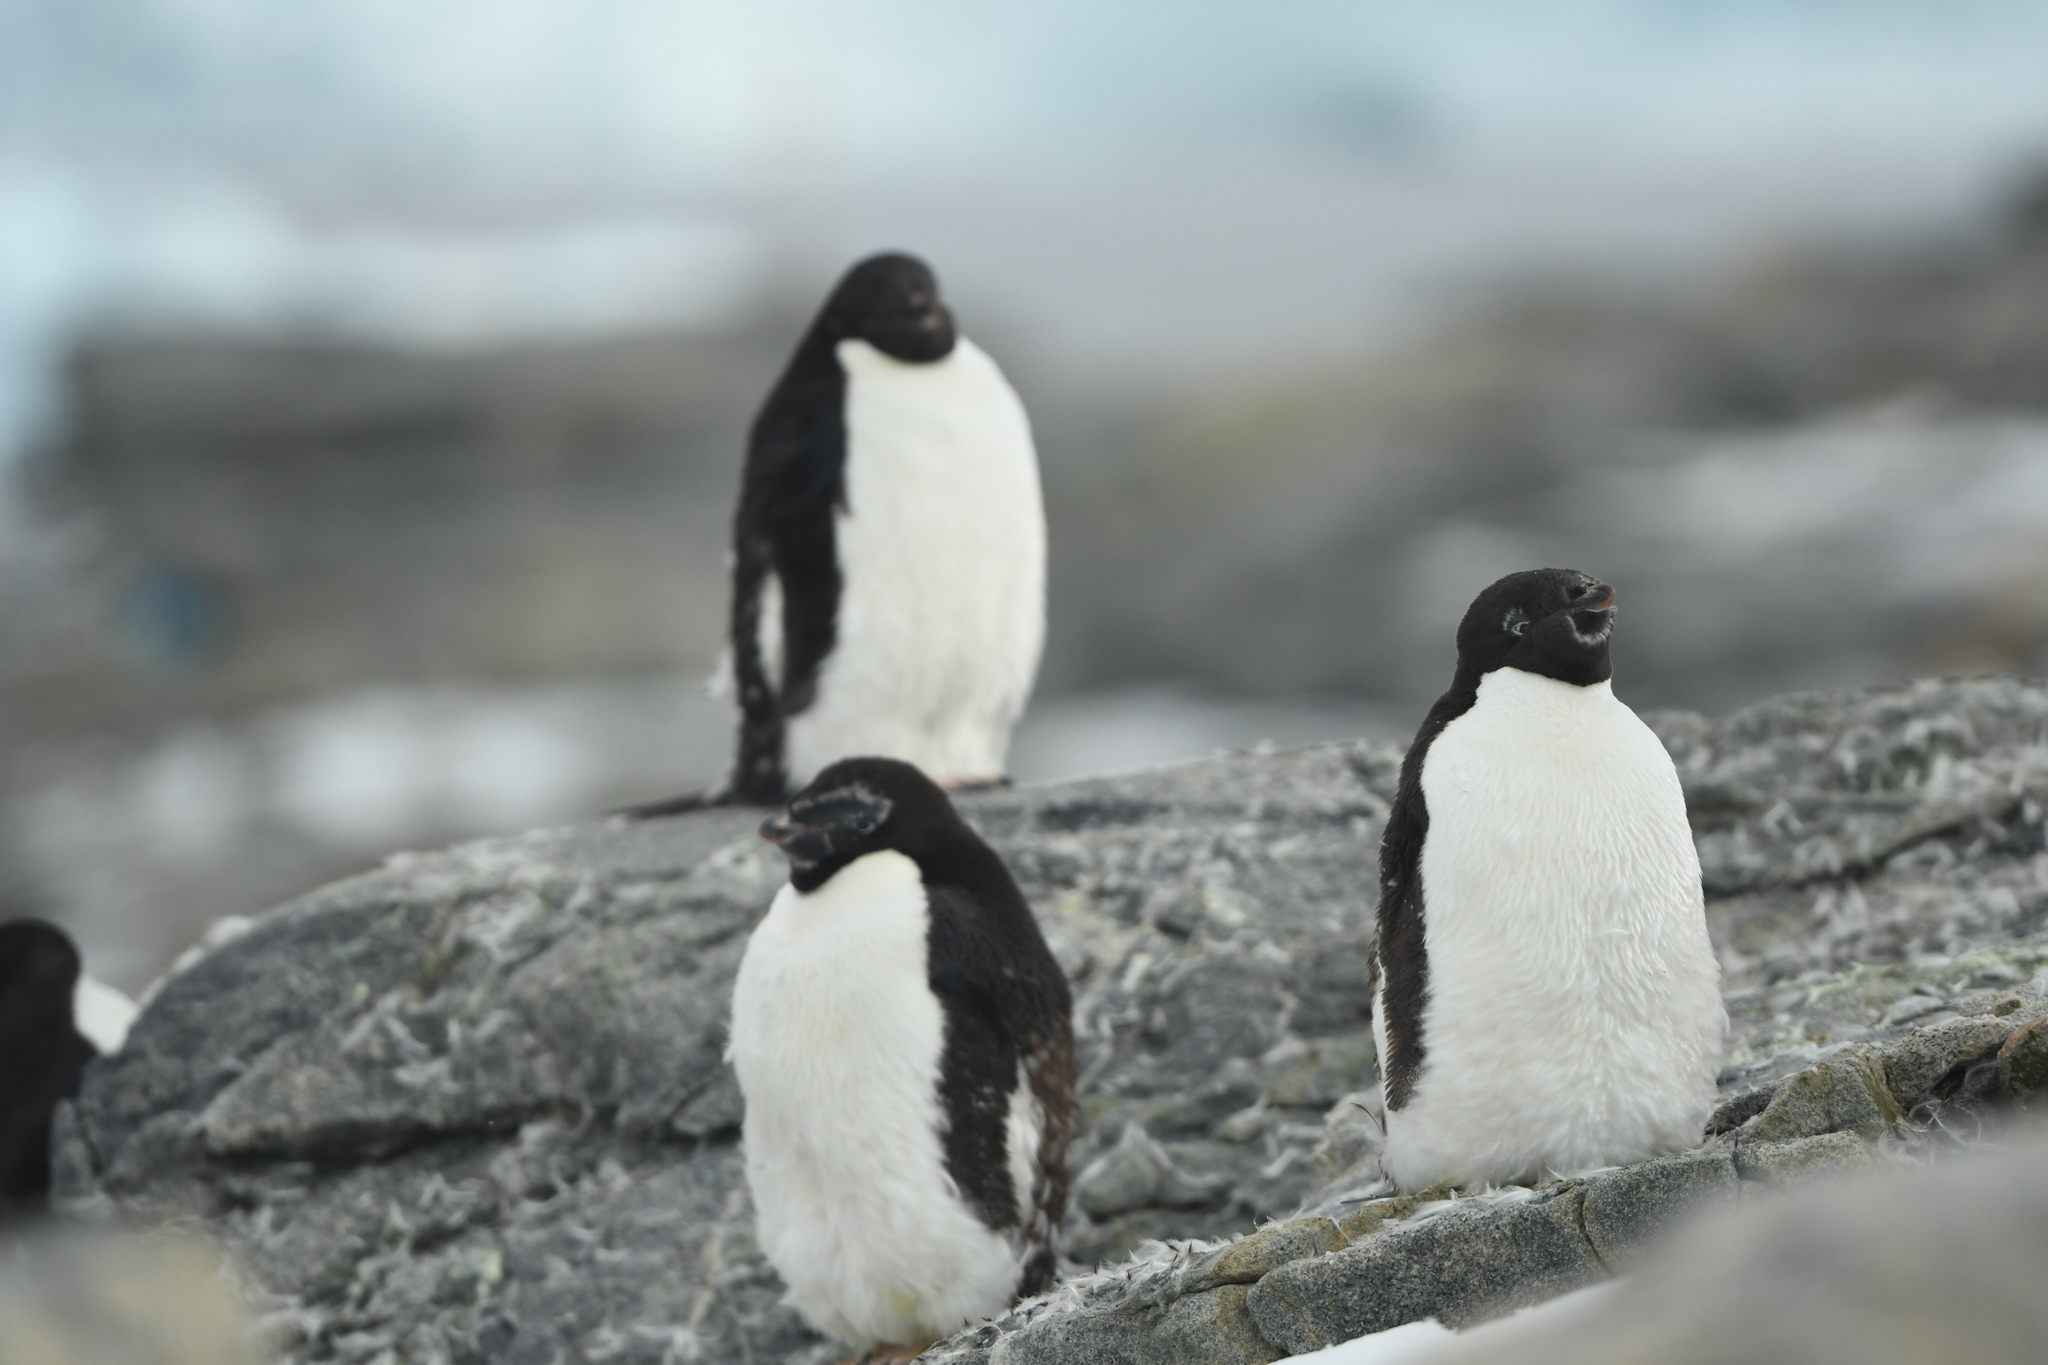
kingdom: Animalia
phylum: Chordata
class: Aves
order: Sphenisciformes
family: Spheniscidae
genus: Pygoscelis
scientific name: Pygoscelis adeliae
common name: Adelie penguin
